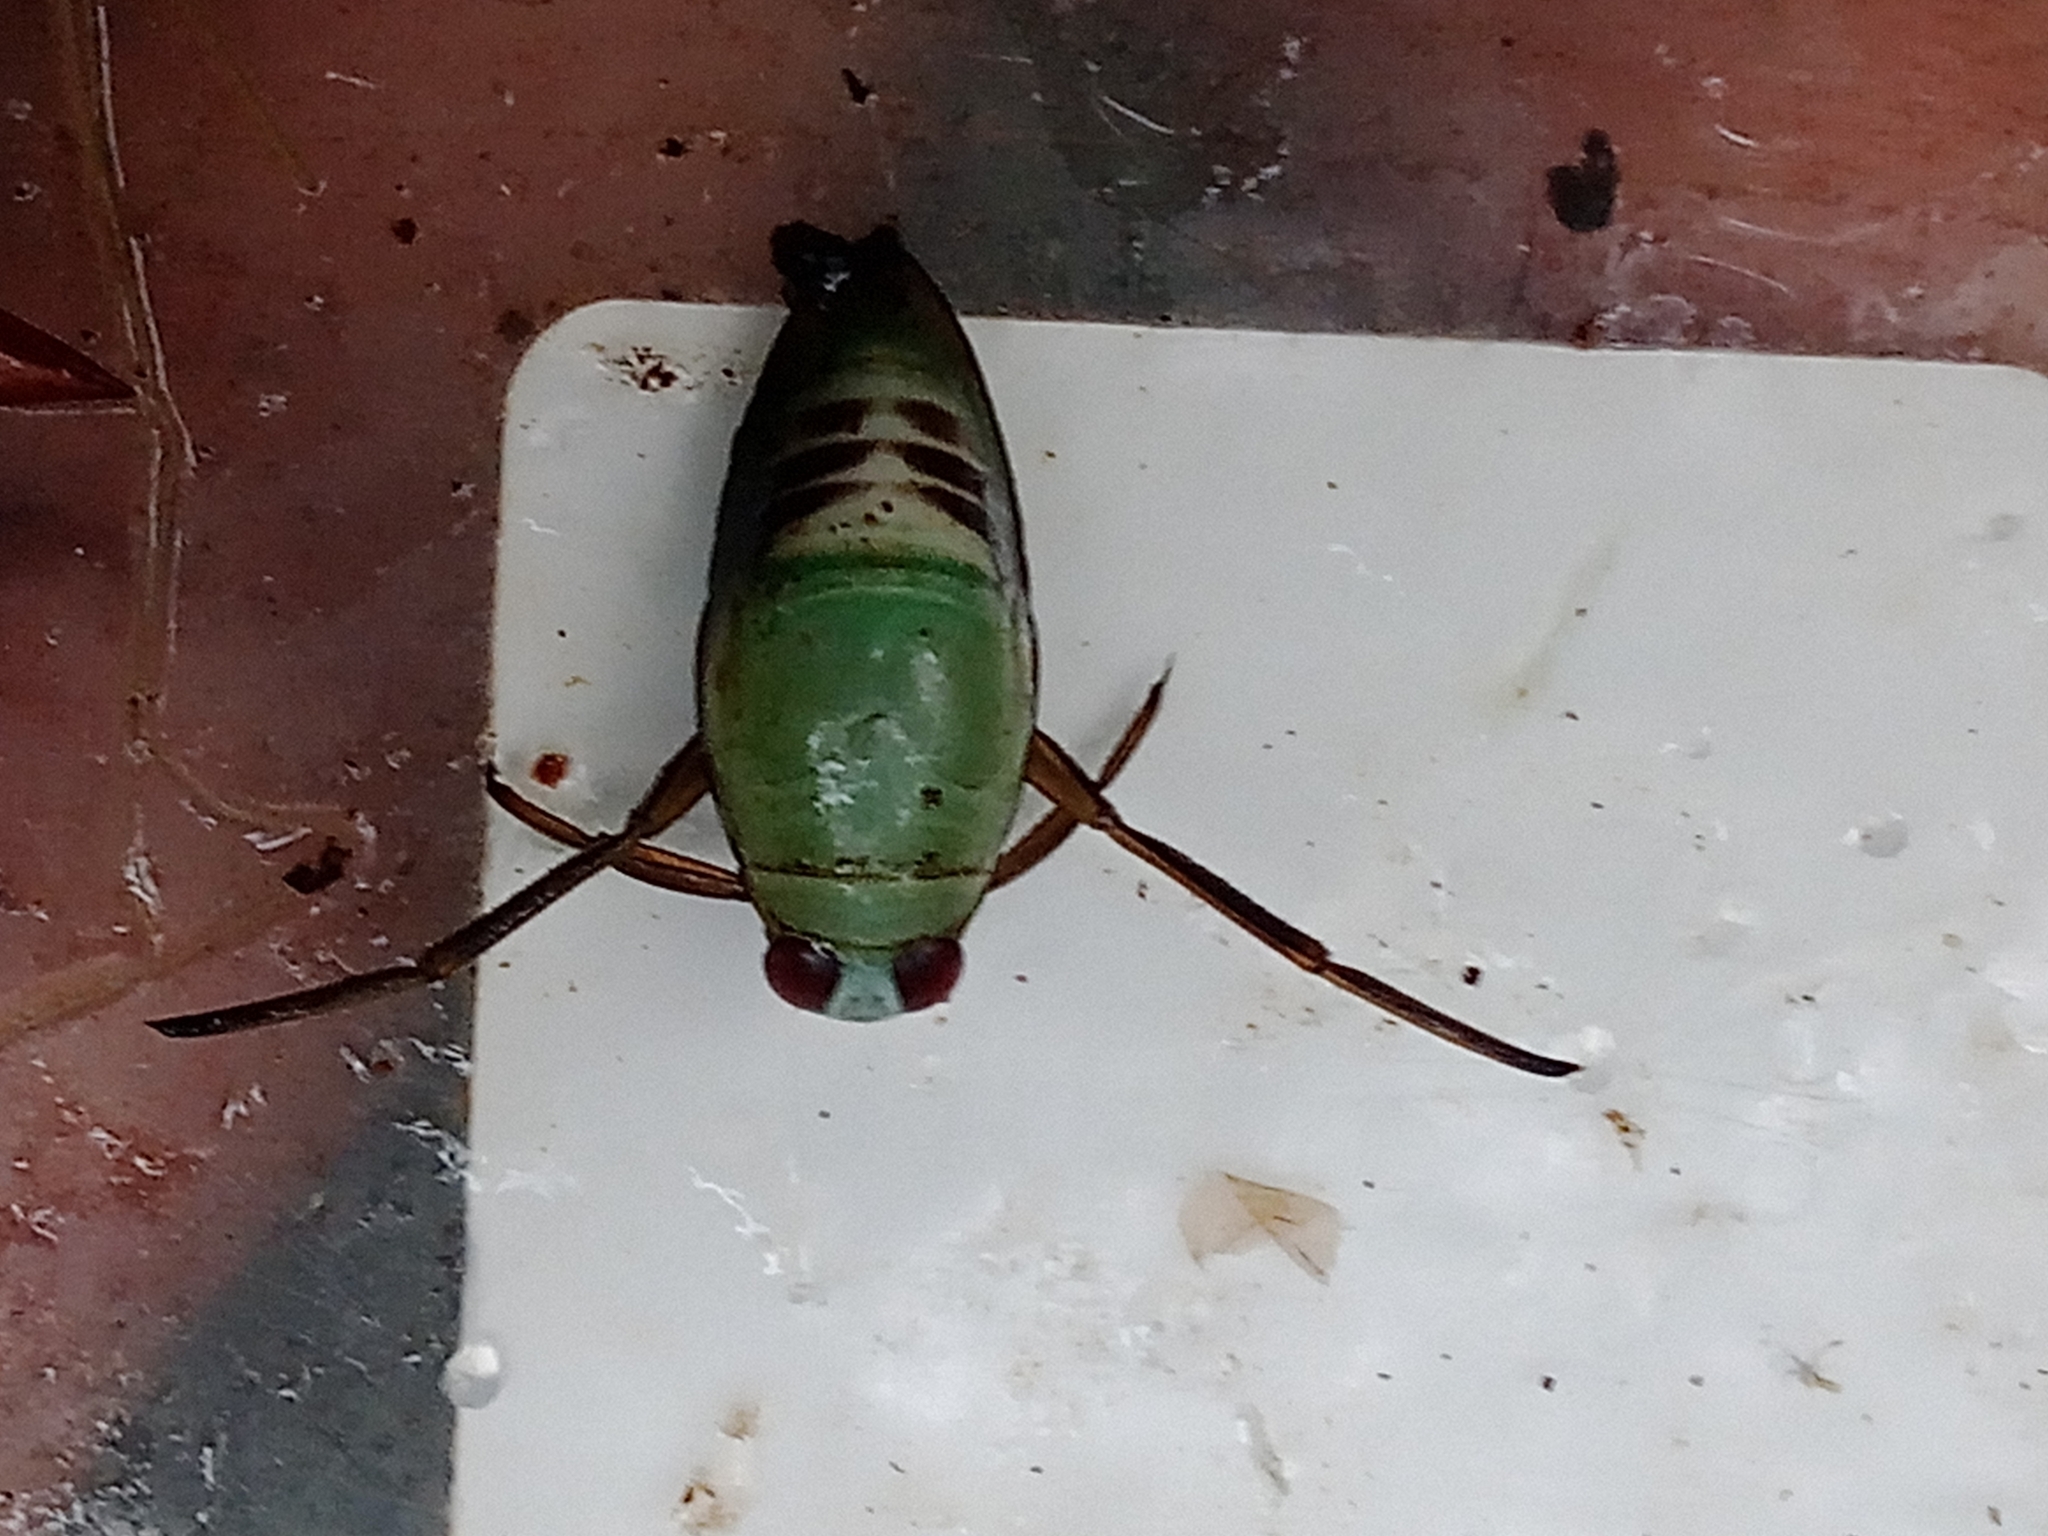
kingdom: Animalia
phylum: Arthropoda
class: Insecta
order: Hemiptera
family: Notonectidae
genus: Notonecta
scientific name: Notonecta glauca
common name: Common water-boatman
